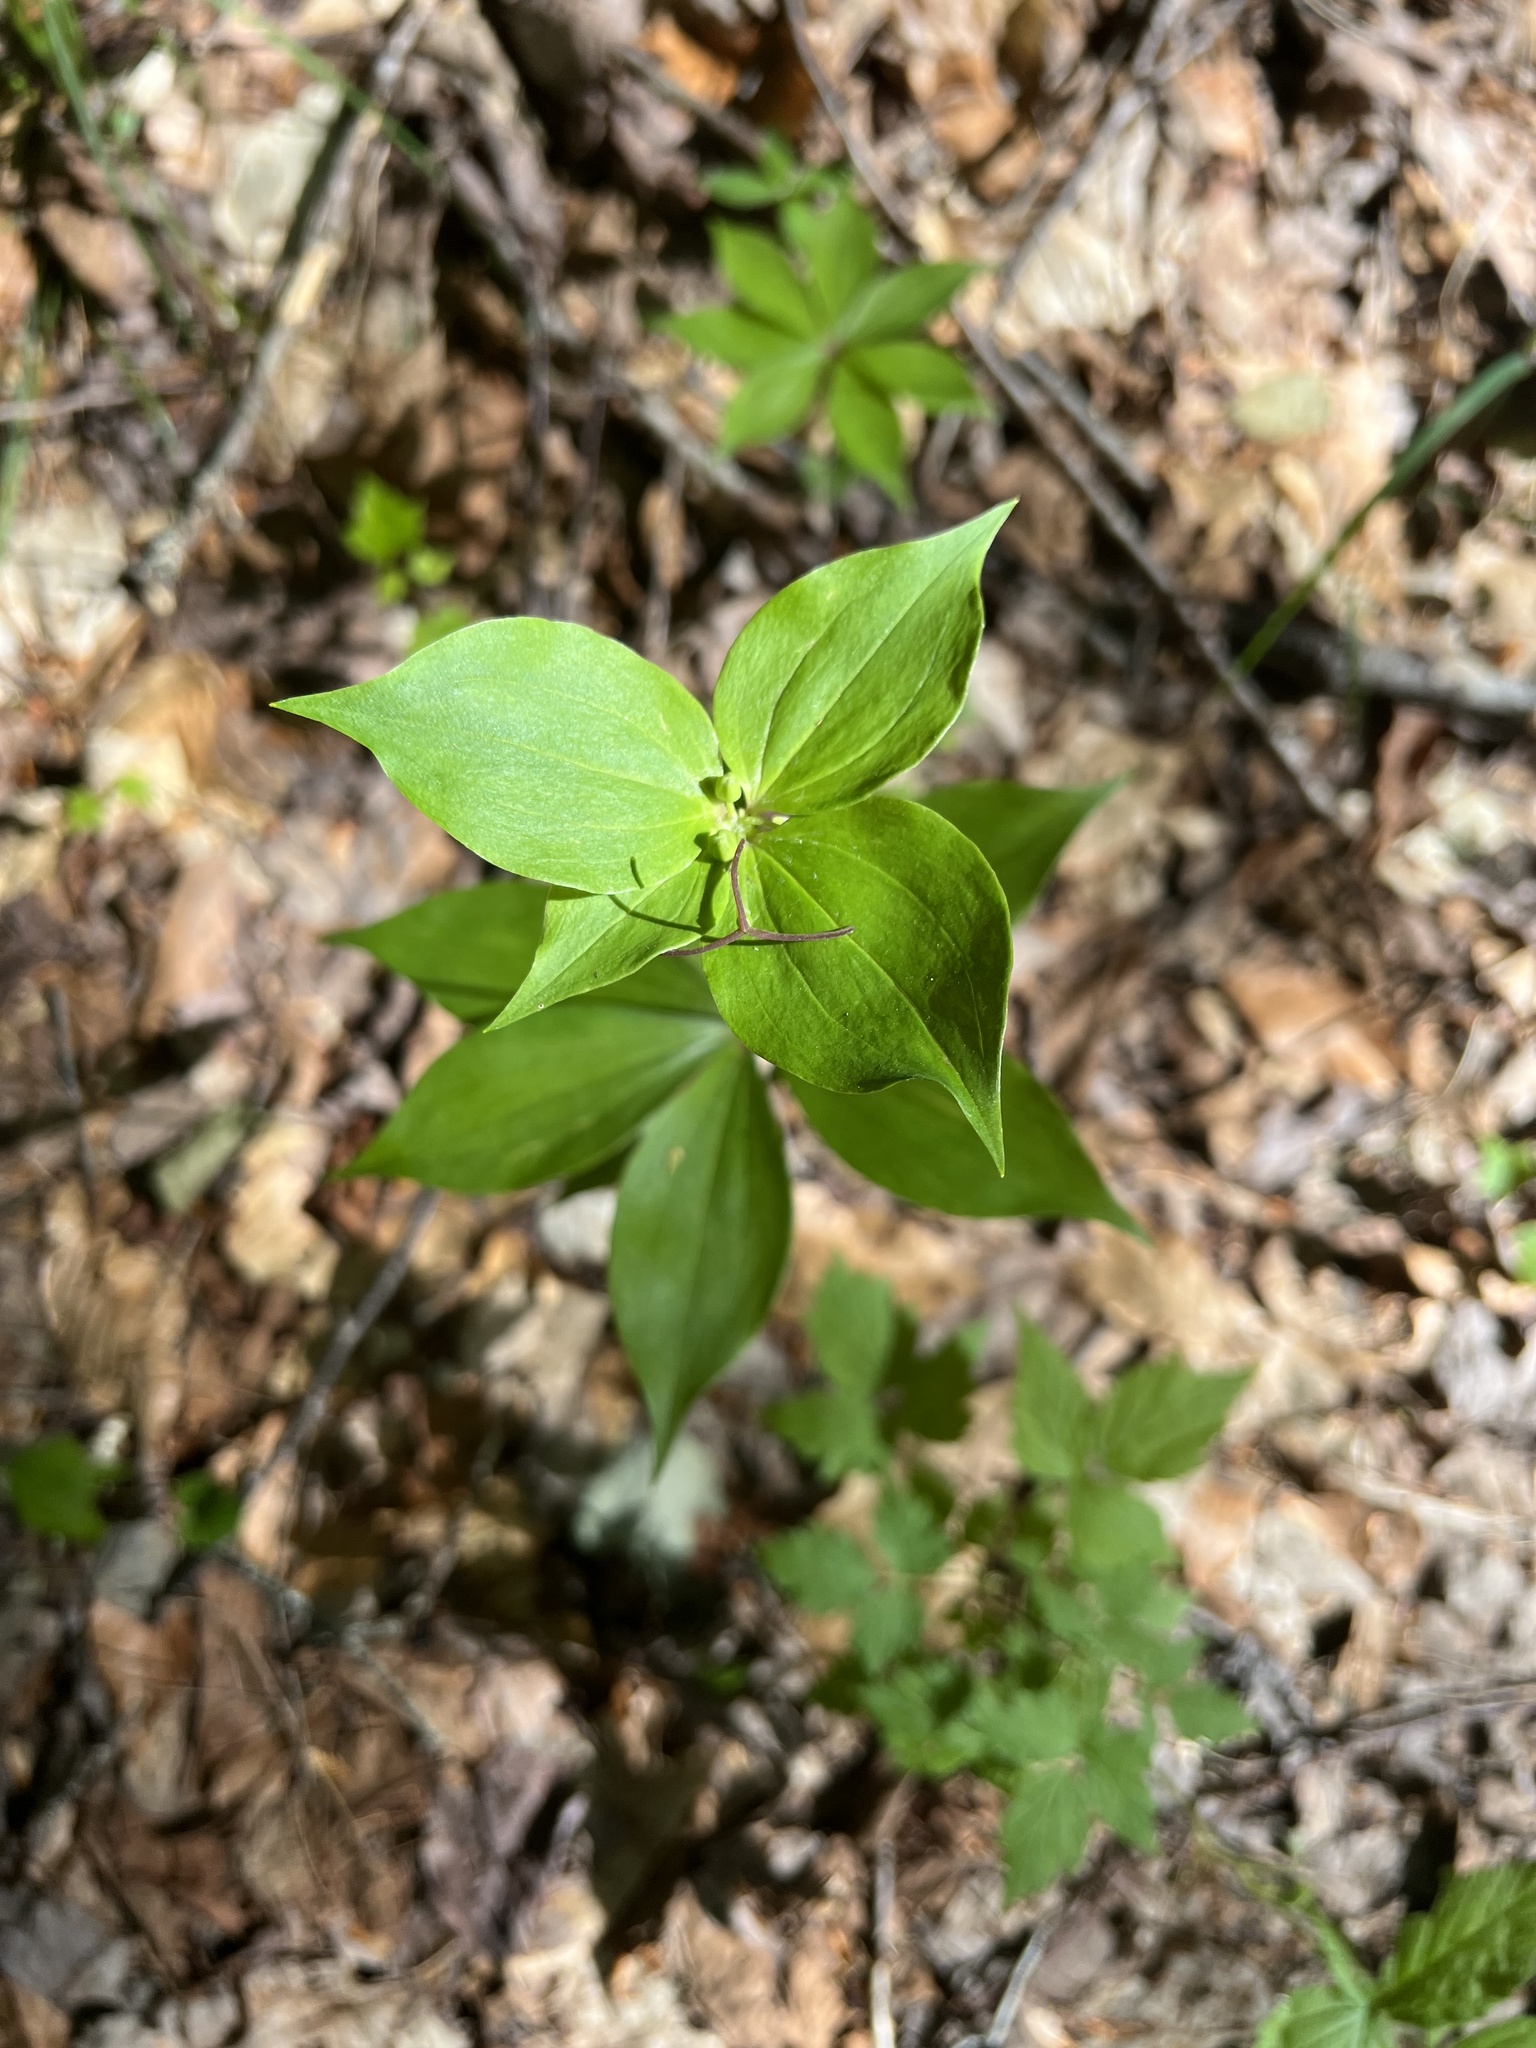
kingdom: Plantae
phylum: Tracheophyta
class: Liliopsida
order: Liliales
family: Liliaceae
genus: Medeola
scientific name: Medeola virginiana
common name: Indian cucumber-root
